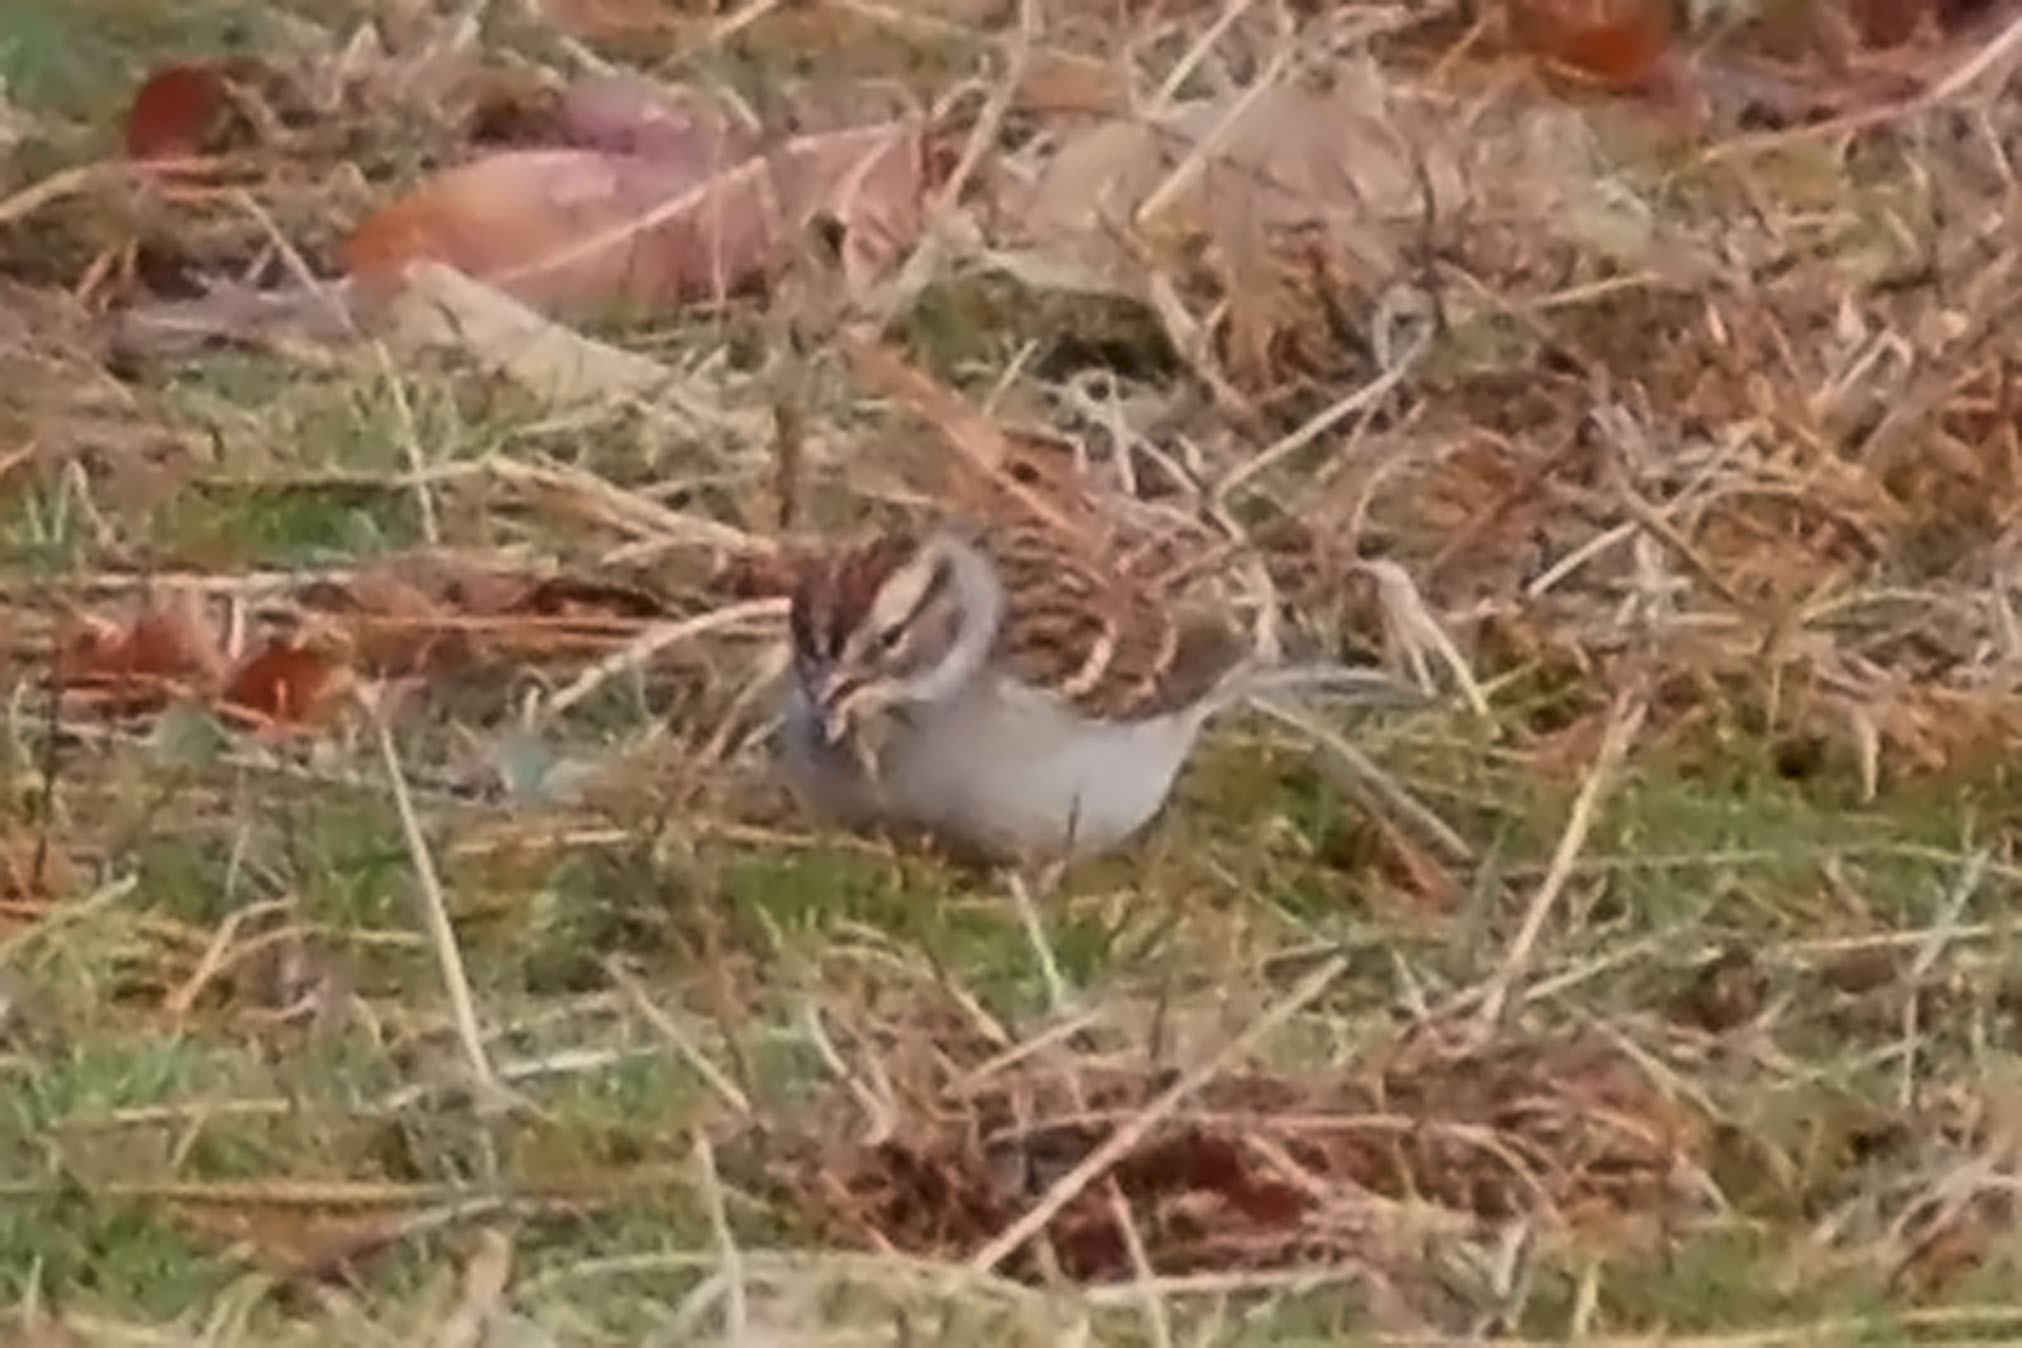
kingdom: Animalia
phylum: Chordata
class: Aves
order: Passeriformes
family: Passerellidae
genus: Spizella
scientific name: Spizella passerina
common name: Chipping sparrow
